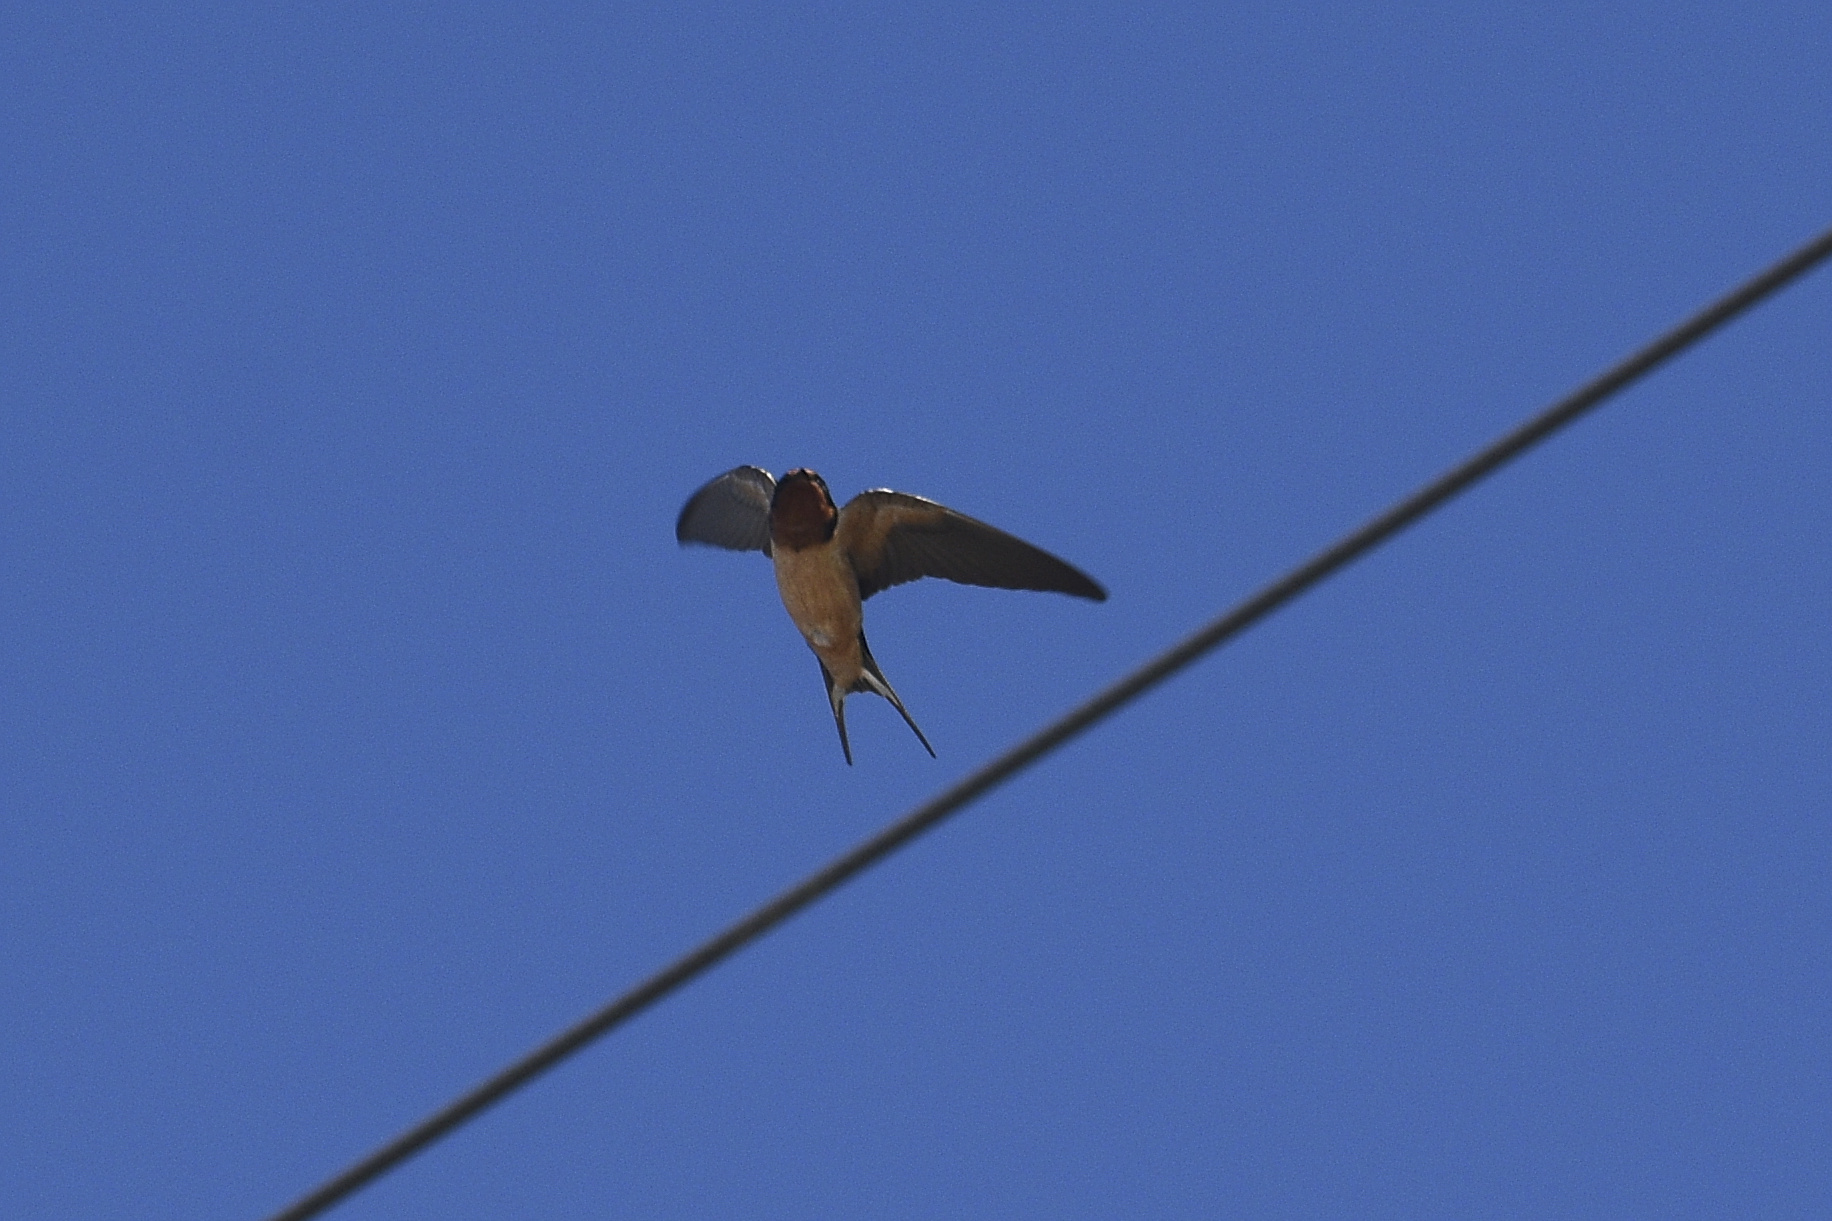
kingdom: Animalia
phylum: Chordata
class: Aves
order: Passeriformes
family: Hirundinidae
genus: Hirundo
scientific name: Hirundo rustica
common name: Barn swallow
